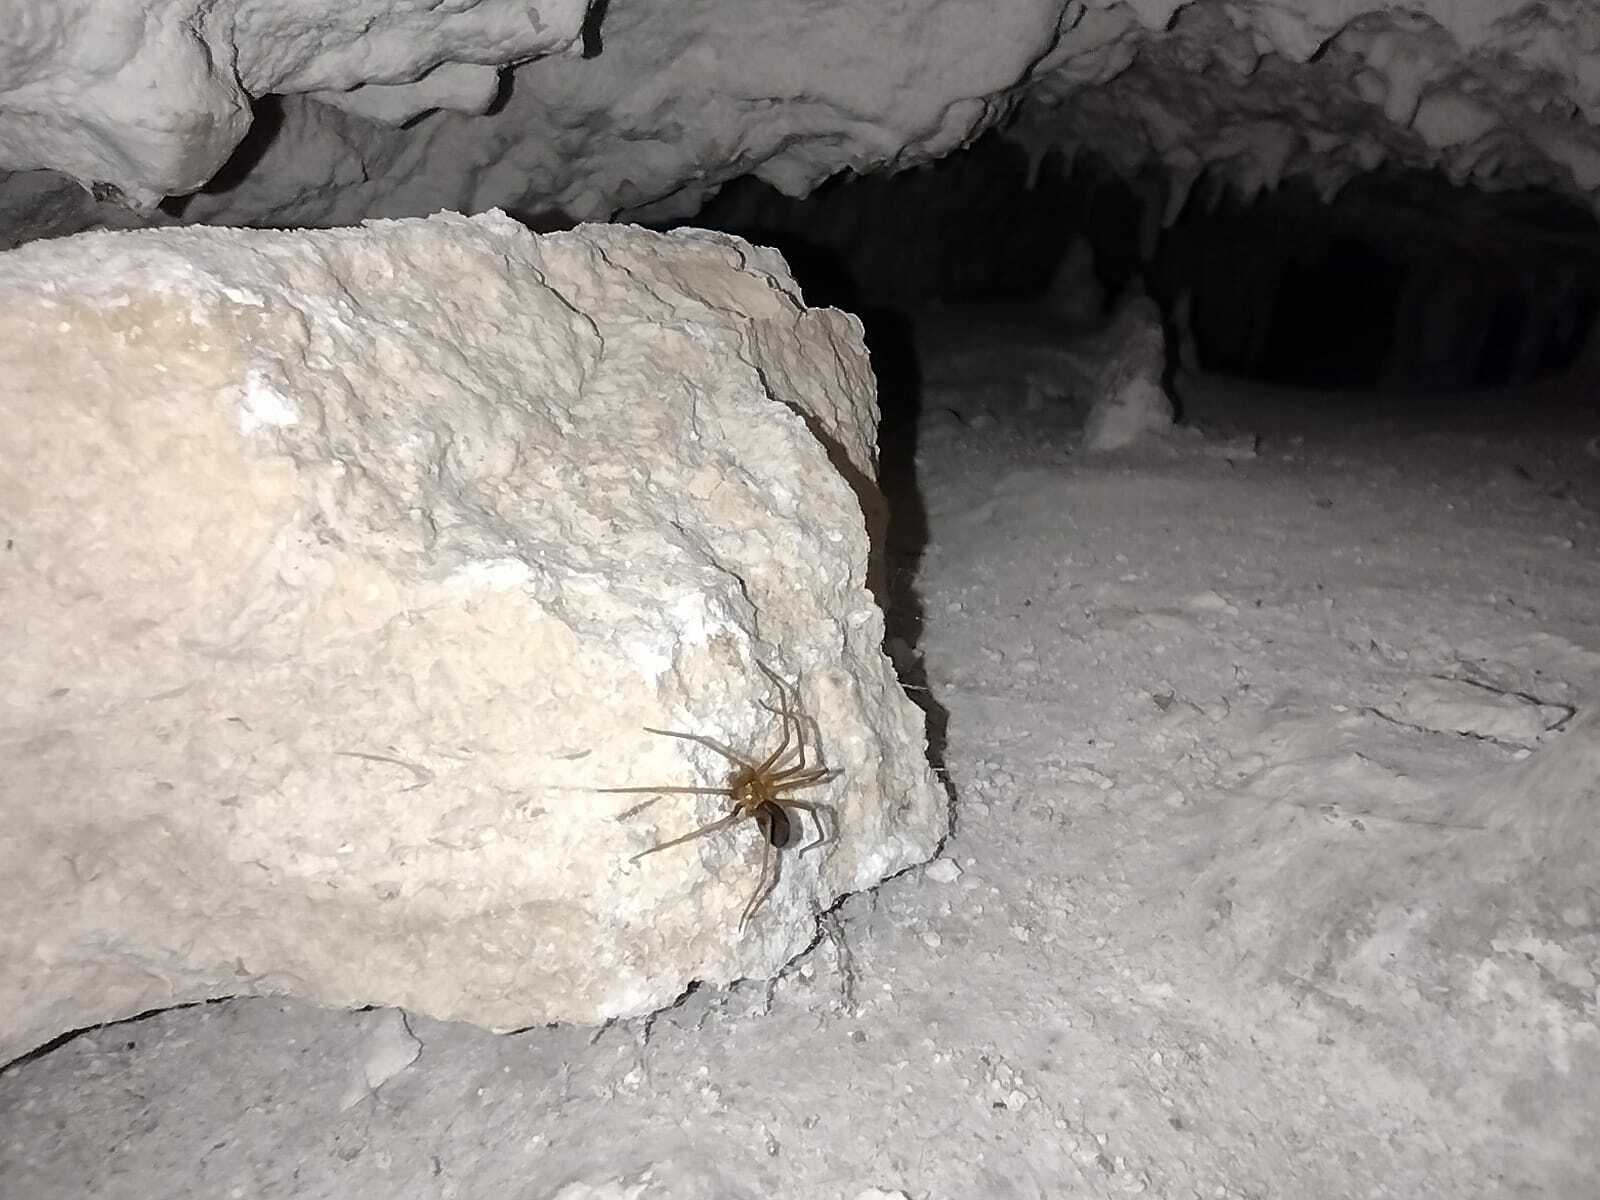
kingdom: Animalia
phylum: Arthropoda
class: Arachnida
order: Araneae
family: Sicariidae
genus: Loxosceles
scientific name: Loxosceles yucatana
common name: Violin spiders
